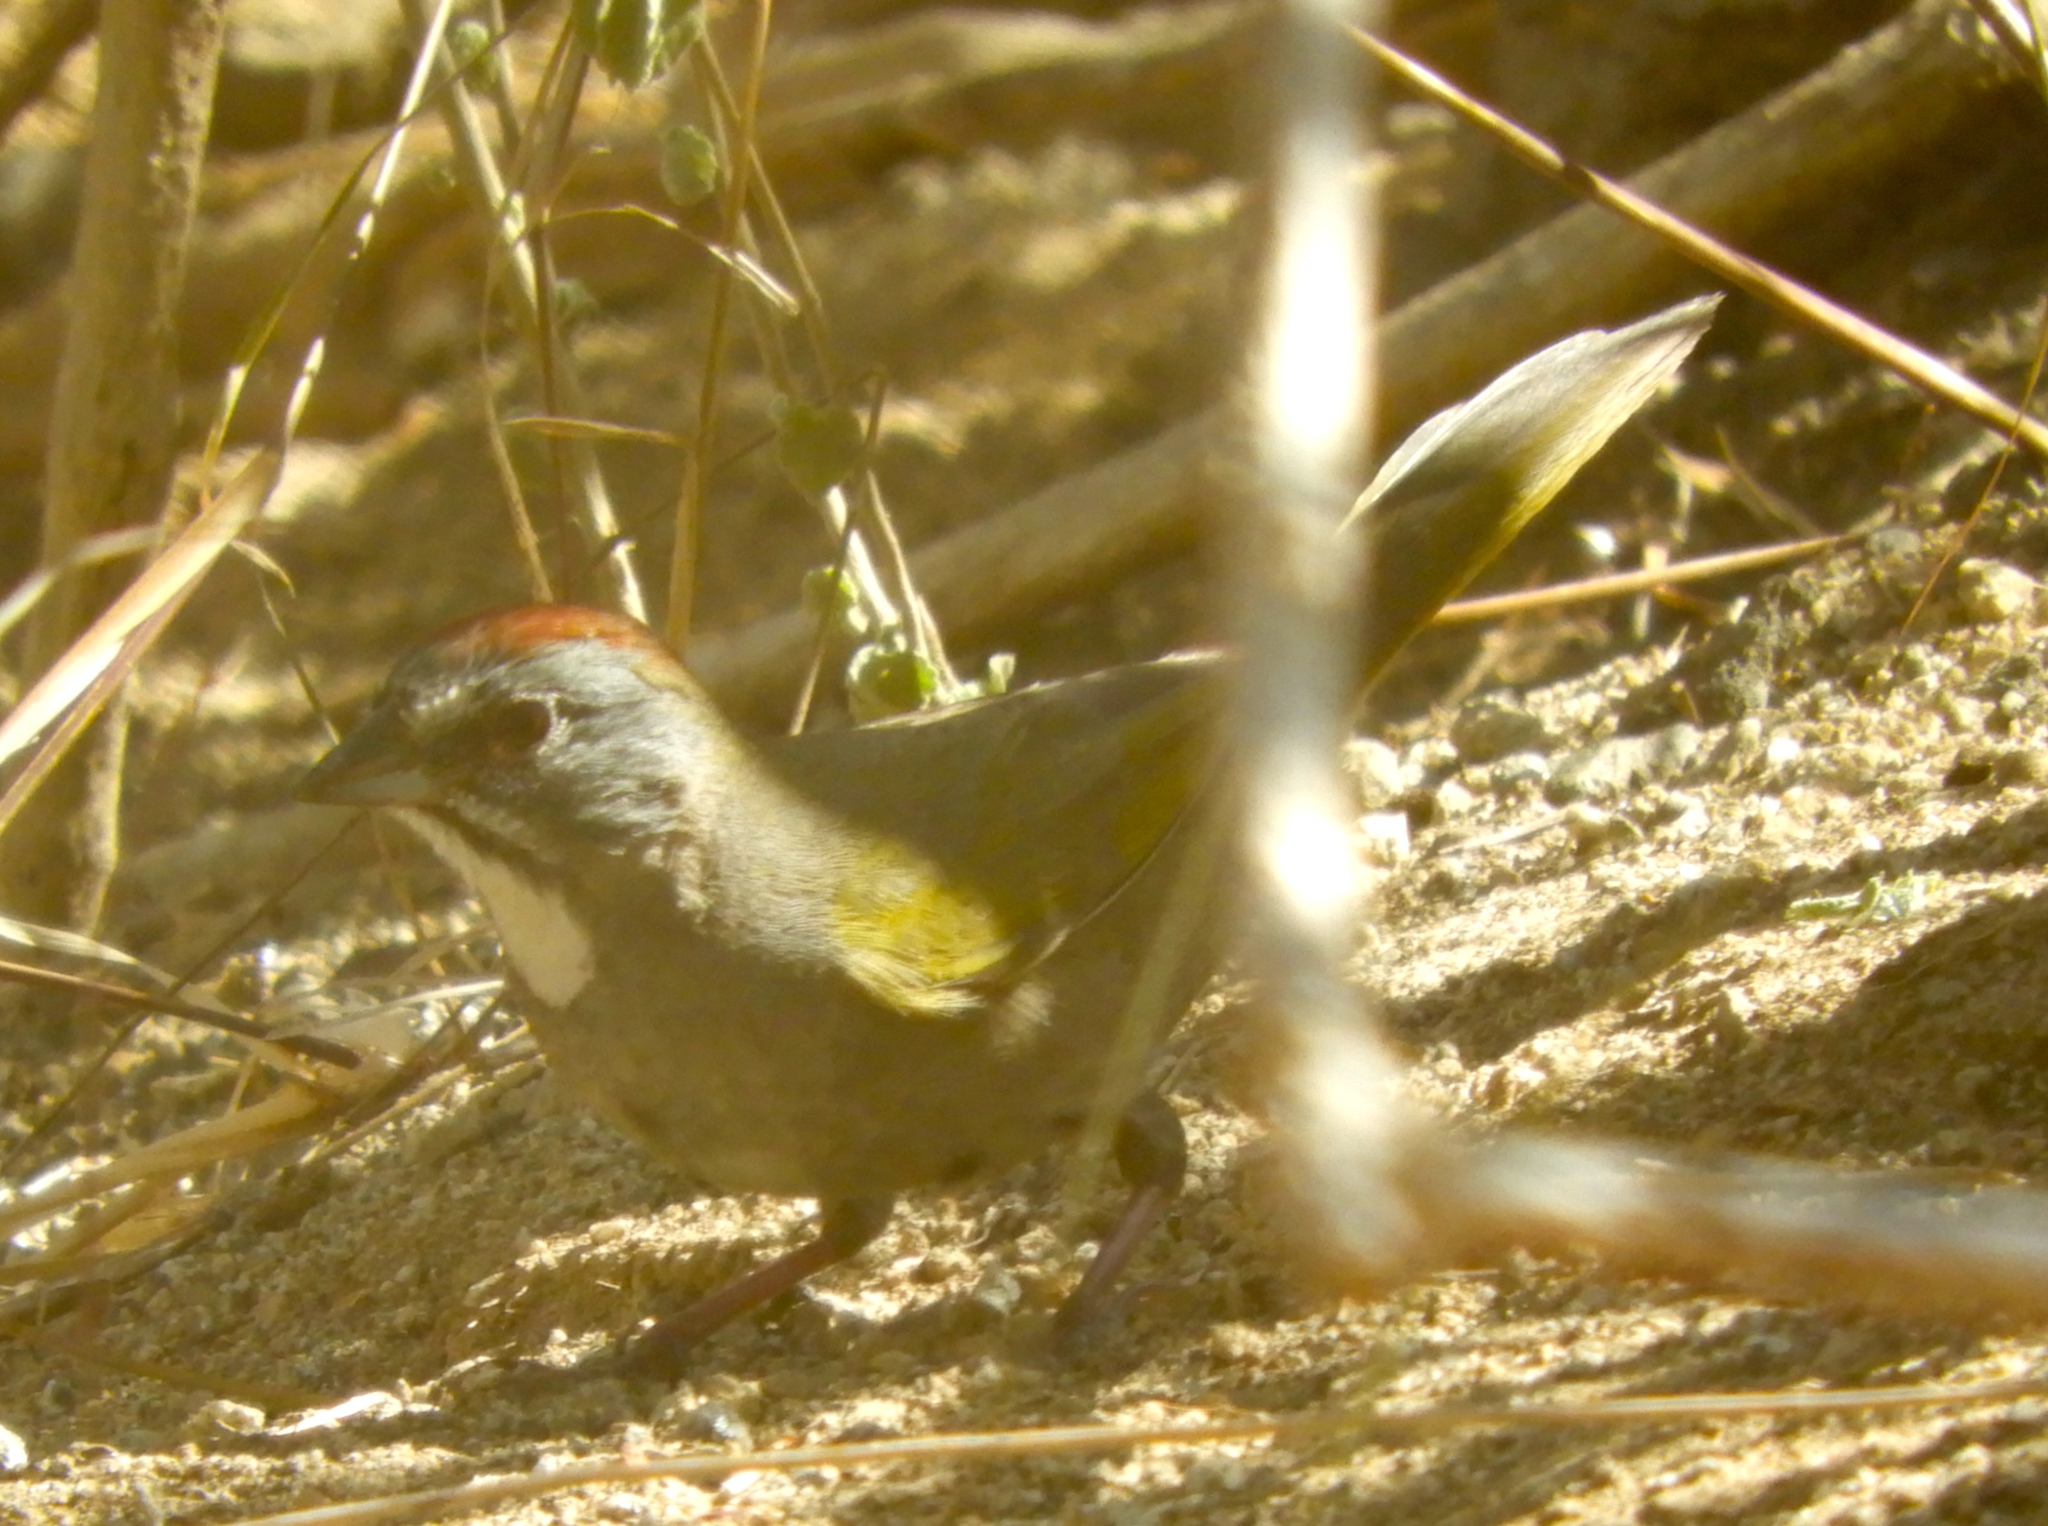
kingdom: Animalia
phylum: Chordata
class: Aves
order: Passeriformes
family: Passerellidae
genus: Pipilo
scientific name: Pipilo chlorurus
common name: Green-tailed towhee
